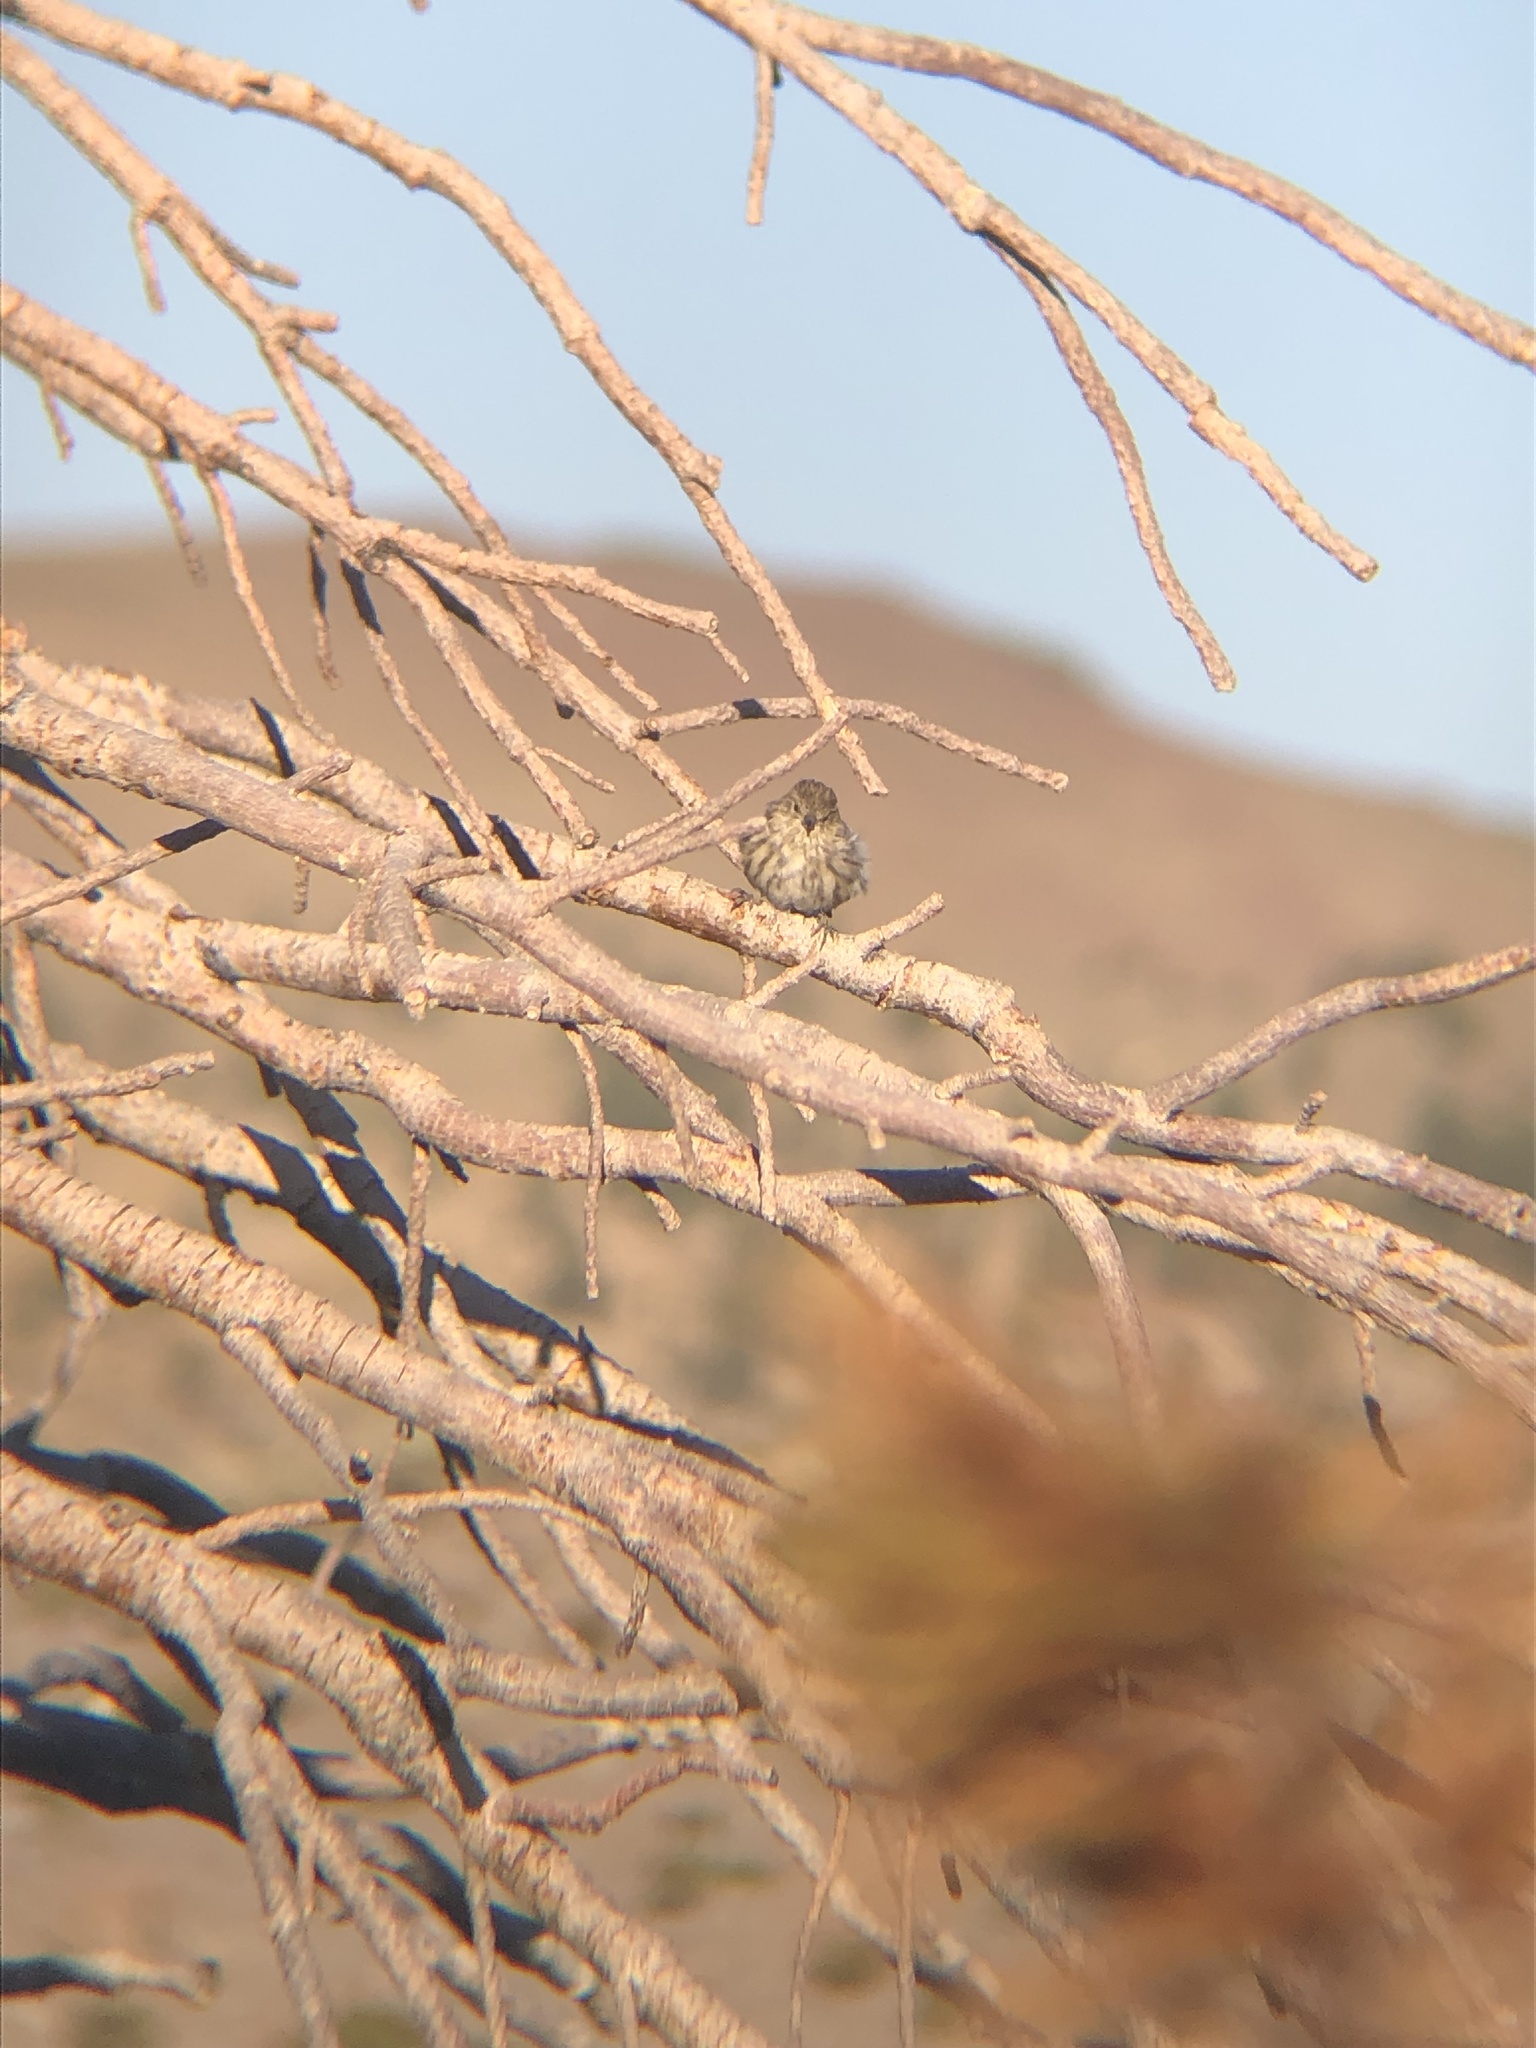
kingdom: Animalia
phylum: Chordata
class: Aves
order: Passeriformes
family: Fringillidae
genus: Spinus
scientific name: Spinus pinus
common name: Pine siskin
